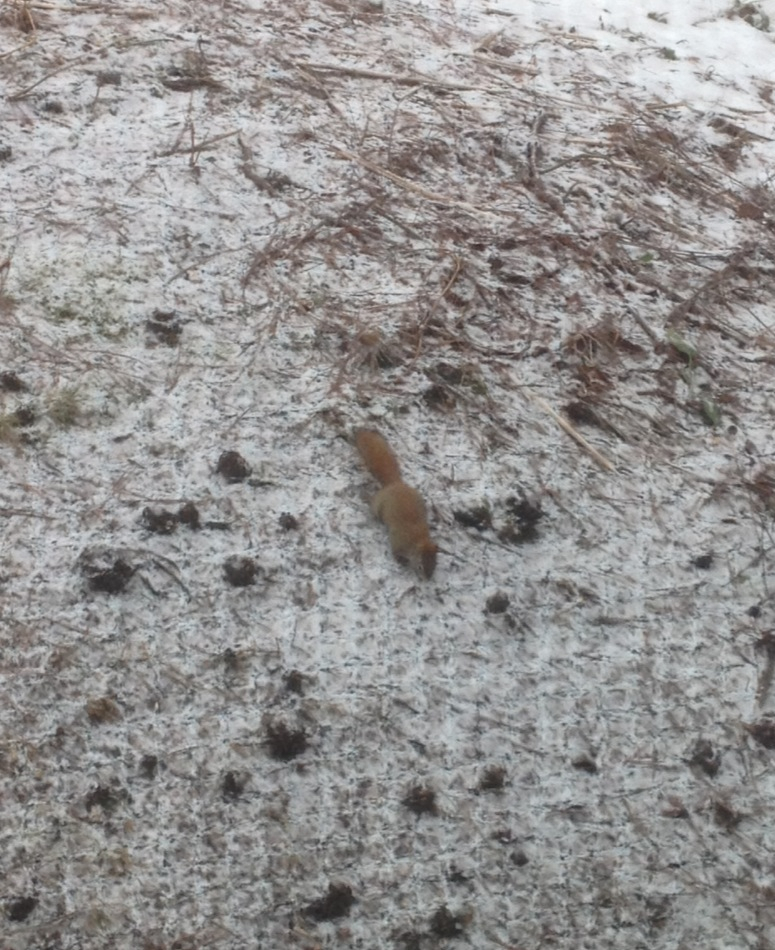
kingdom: Animalia
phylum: Chordata
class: Mammalia
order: Rodentia
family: Sciuridae
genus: Tamiasciurus
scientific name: Tamiasciurus hudsonicus
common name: Red squirrel
